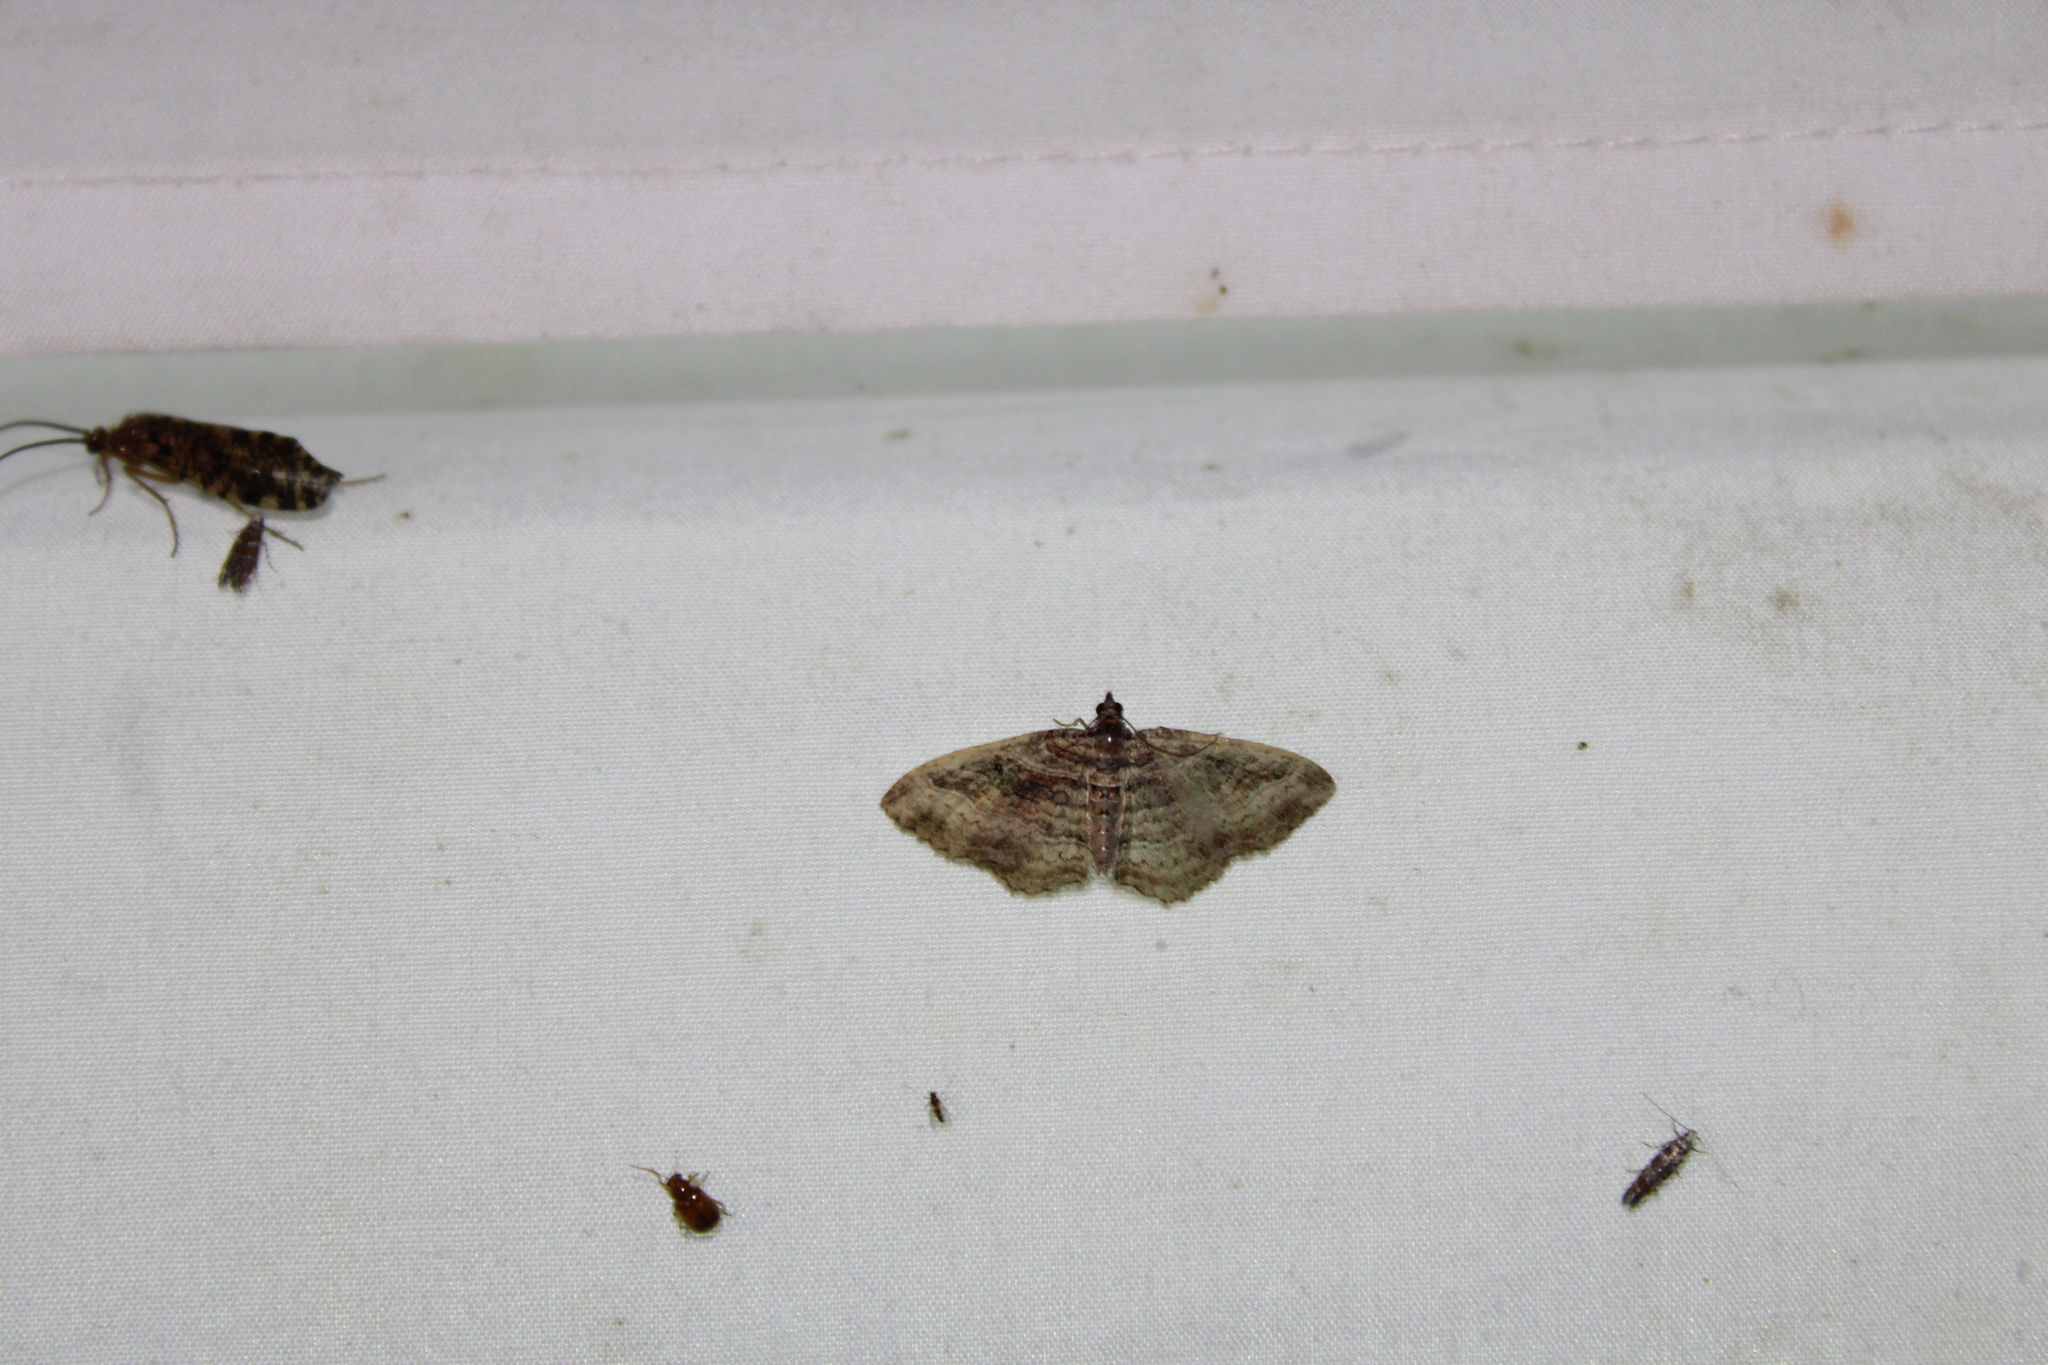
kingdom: Animalia
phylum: Arthropoda
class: Insecta
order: Lepidoptera
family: Geometridae
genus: Costaconvexa
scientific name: Costaconvexa centrostrigaria
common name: Bent-line carpet
